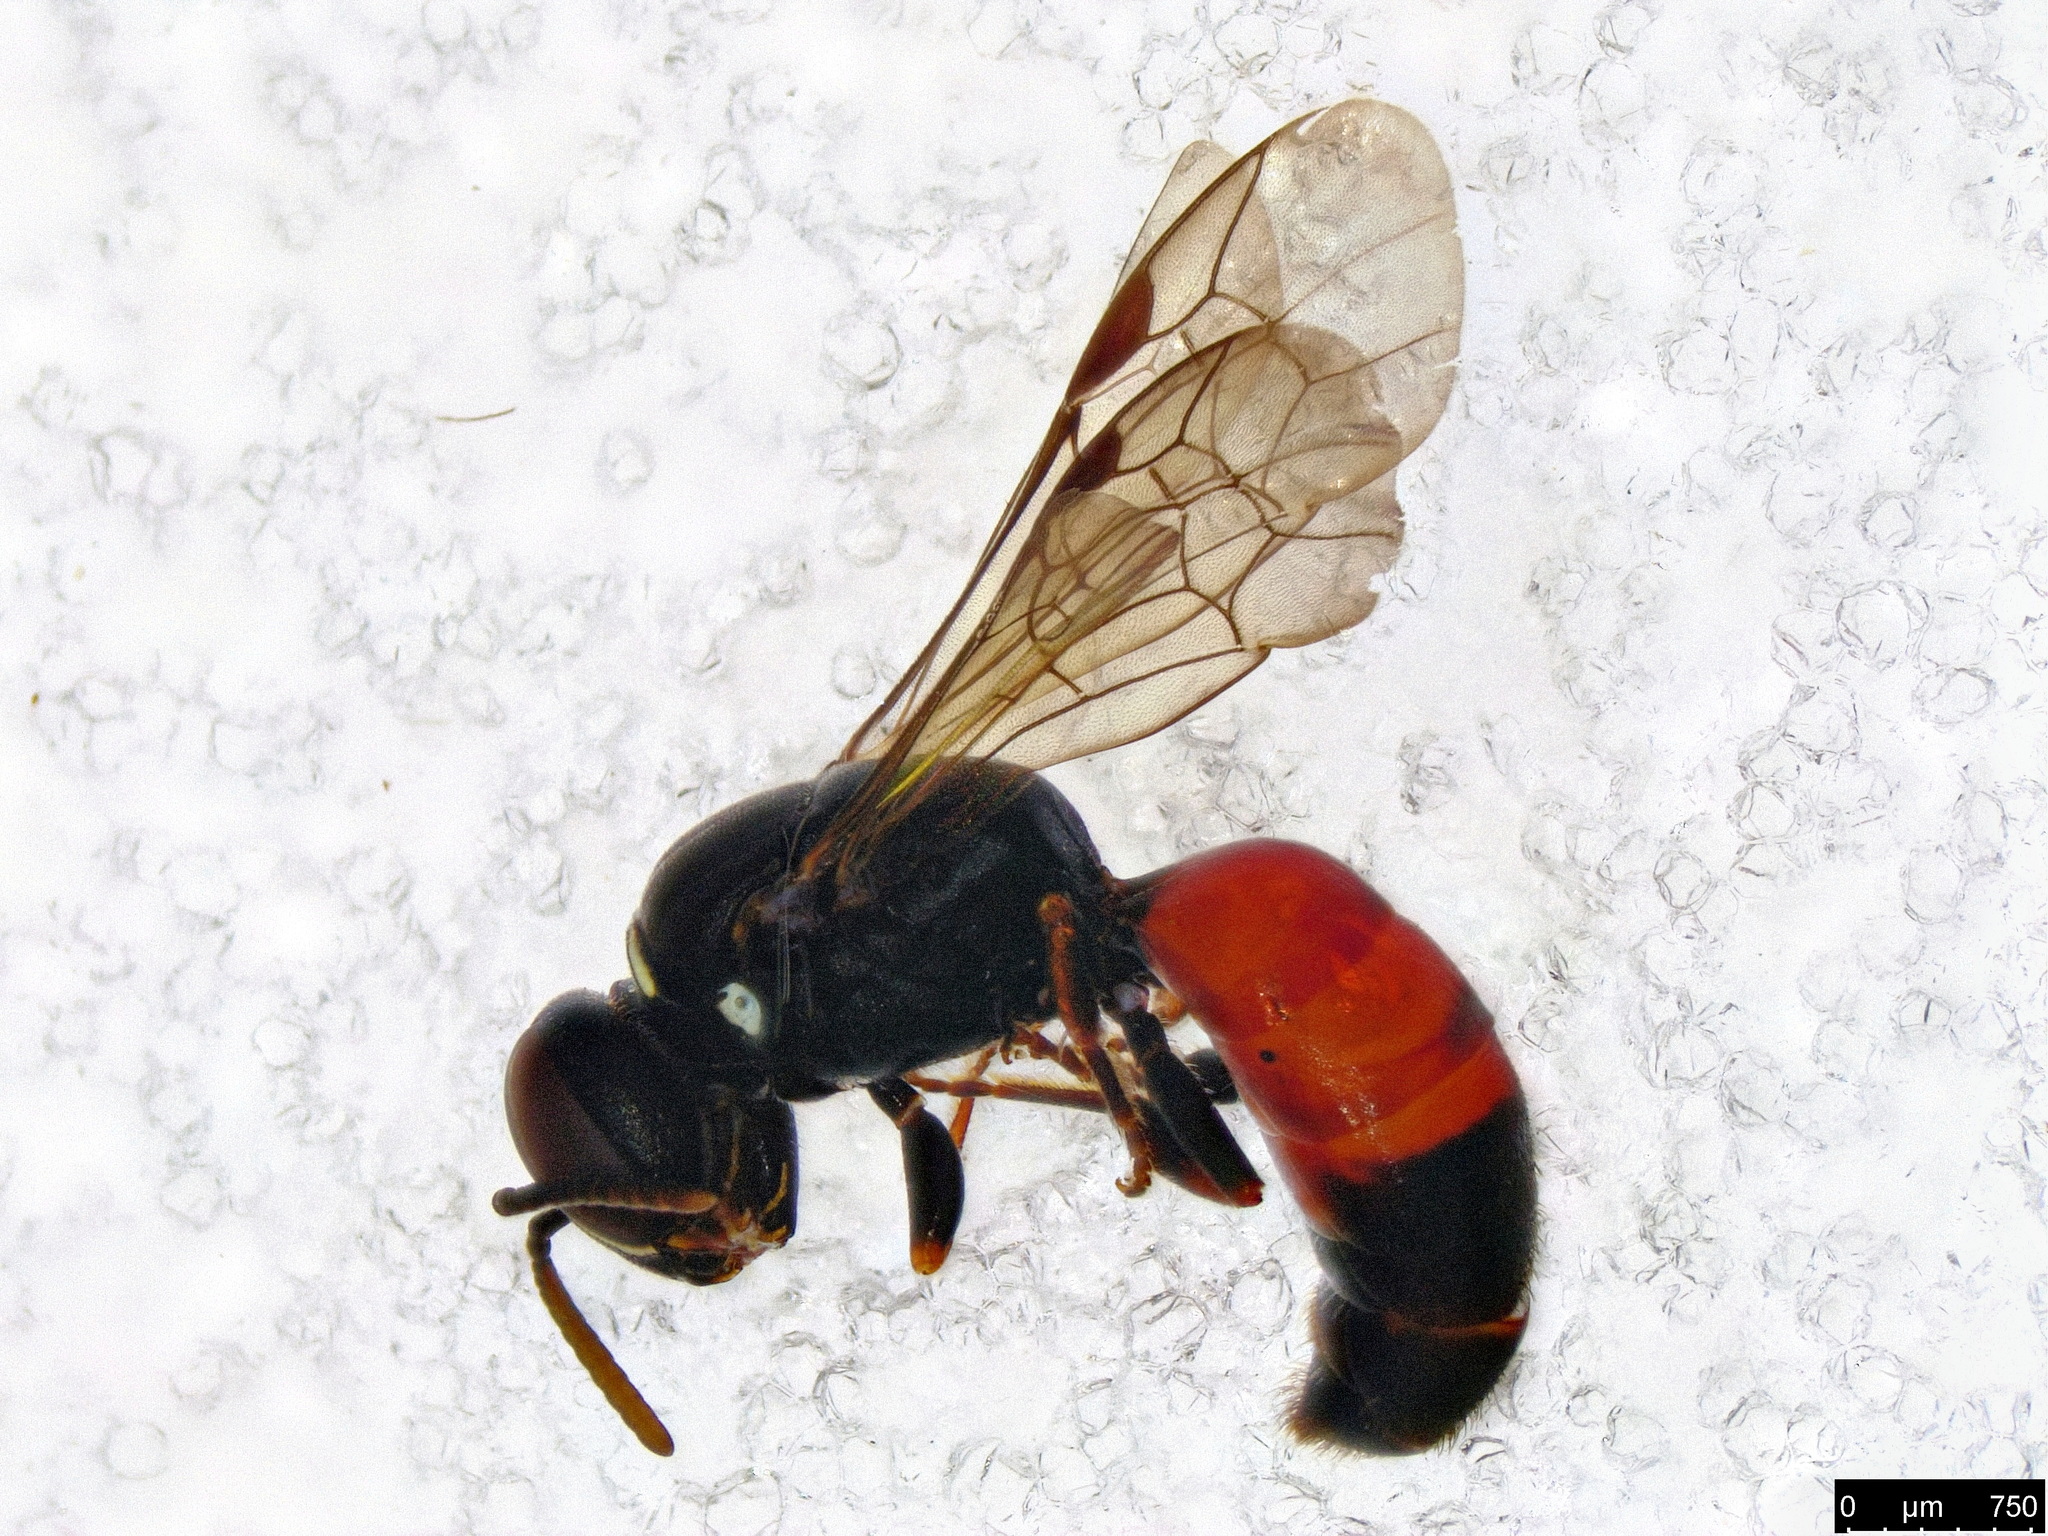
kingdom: Animalia
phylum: Arthropoda
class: Insecta
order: Hymenoptera
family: Colletidae
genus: Hylaeus
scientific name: Hylaeus littleri
